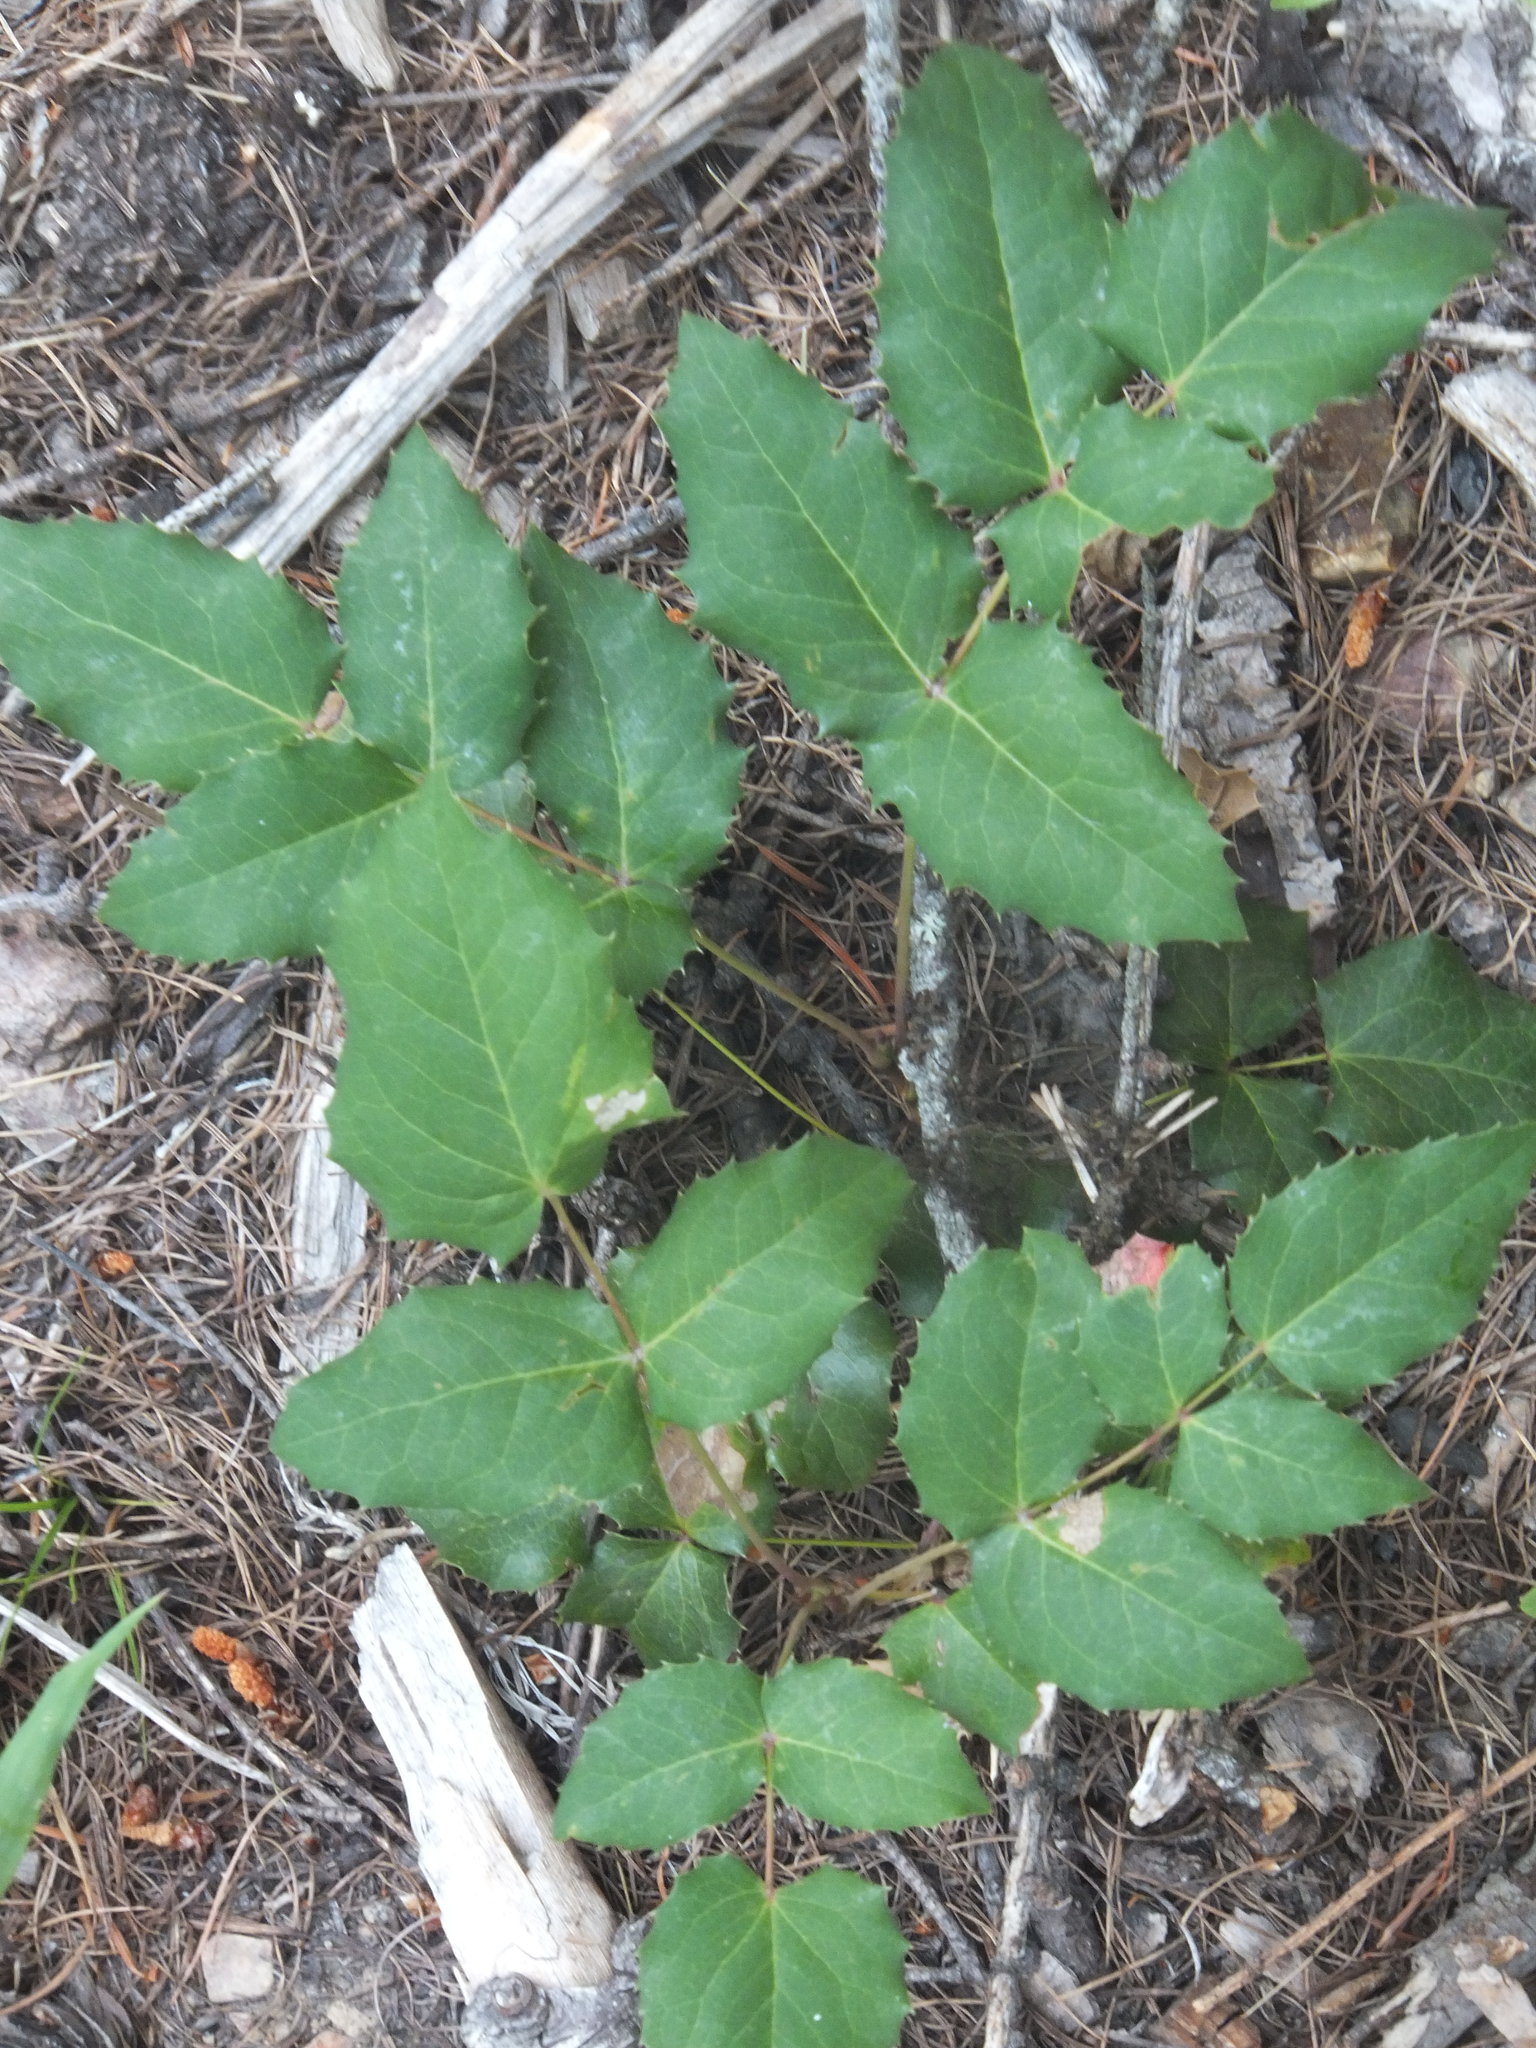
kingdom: Plantae
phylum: Tracheophyta
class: Magnoliopsida
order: Ranunculales
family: Berberidaceae
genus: Mahonia
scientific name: Mahonia repens
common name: Creeping oregon-grape
